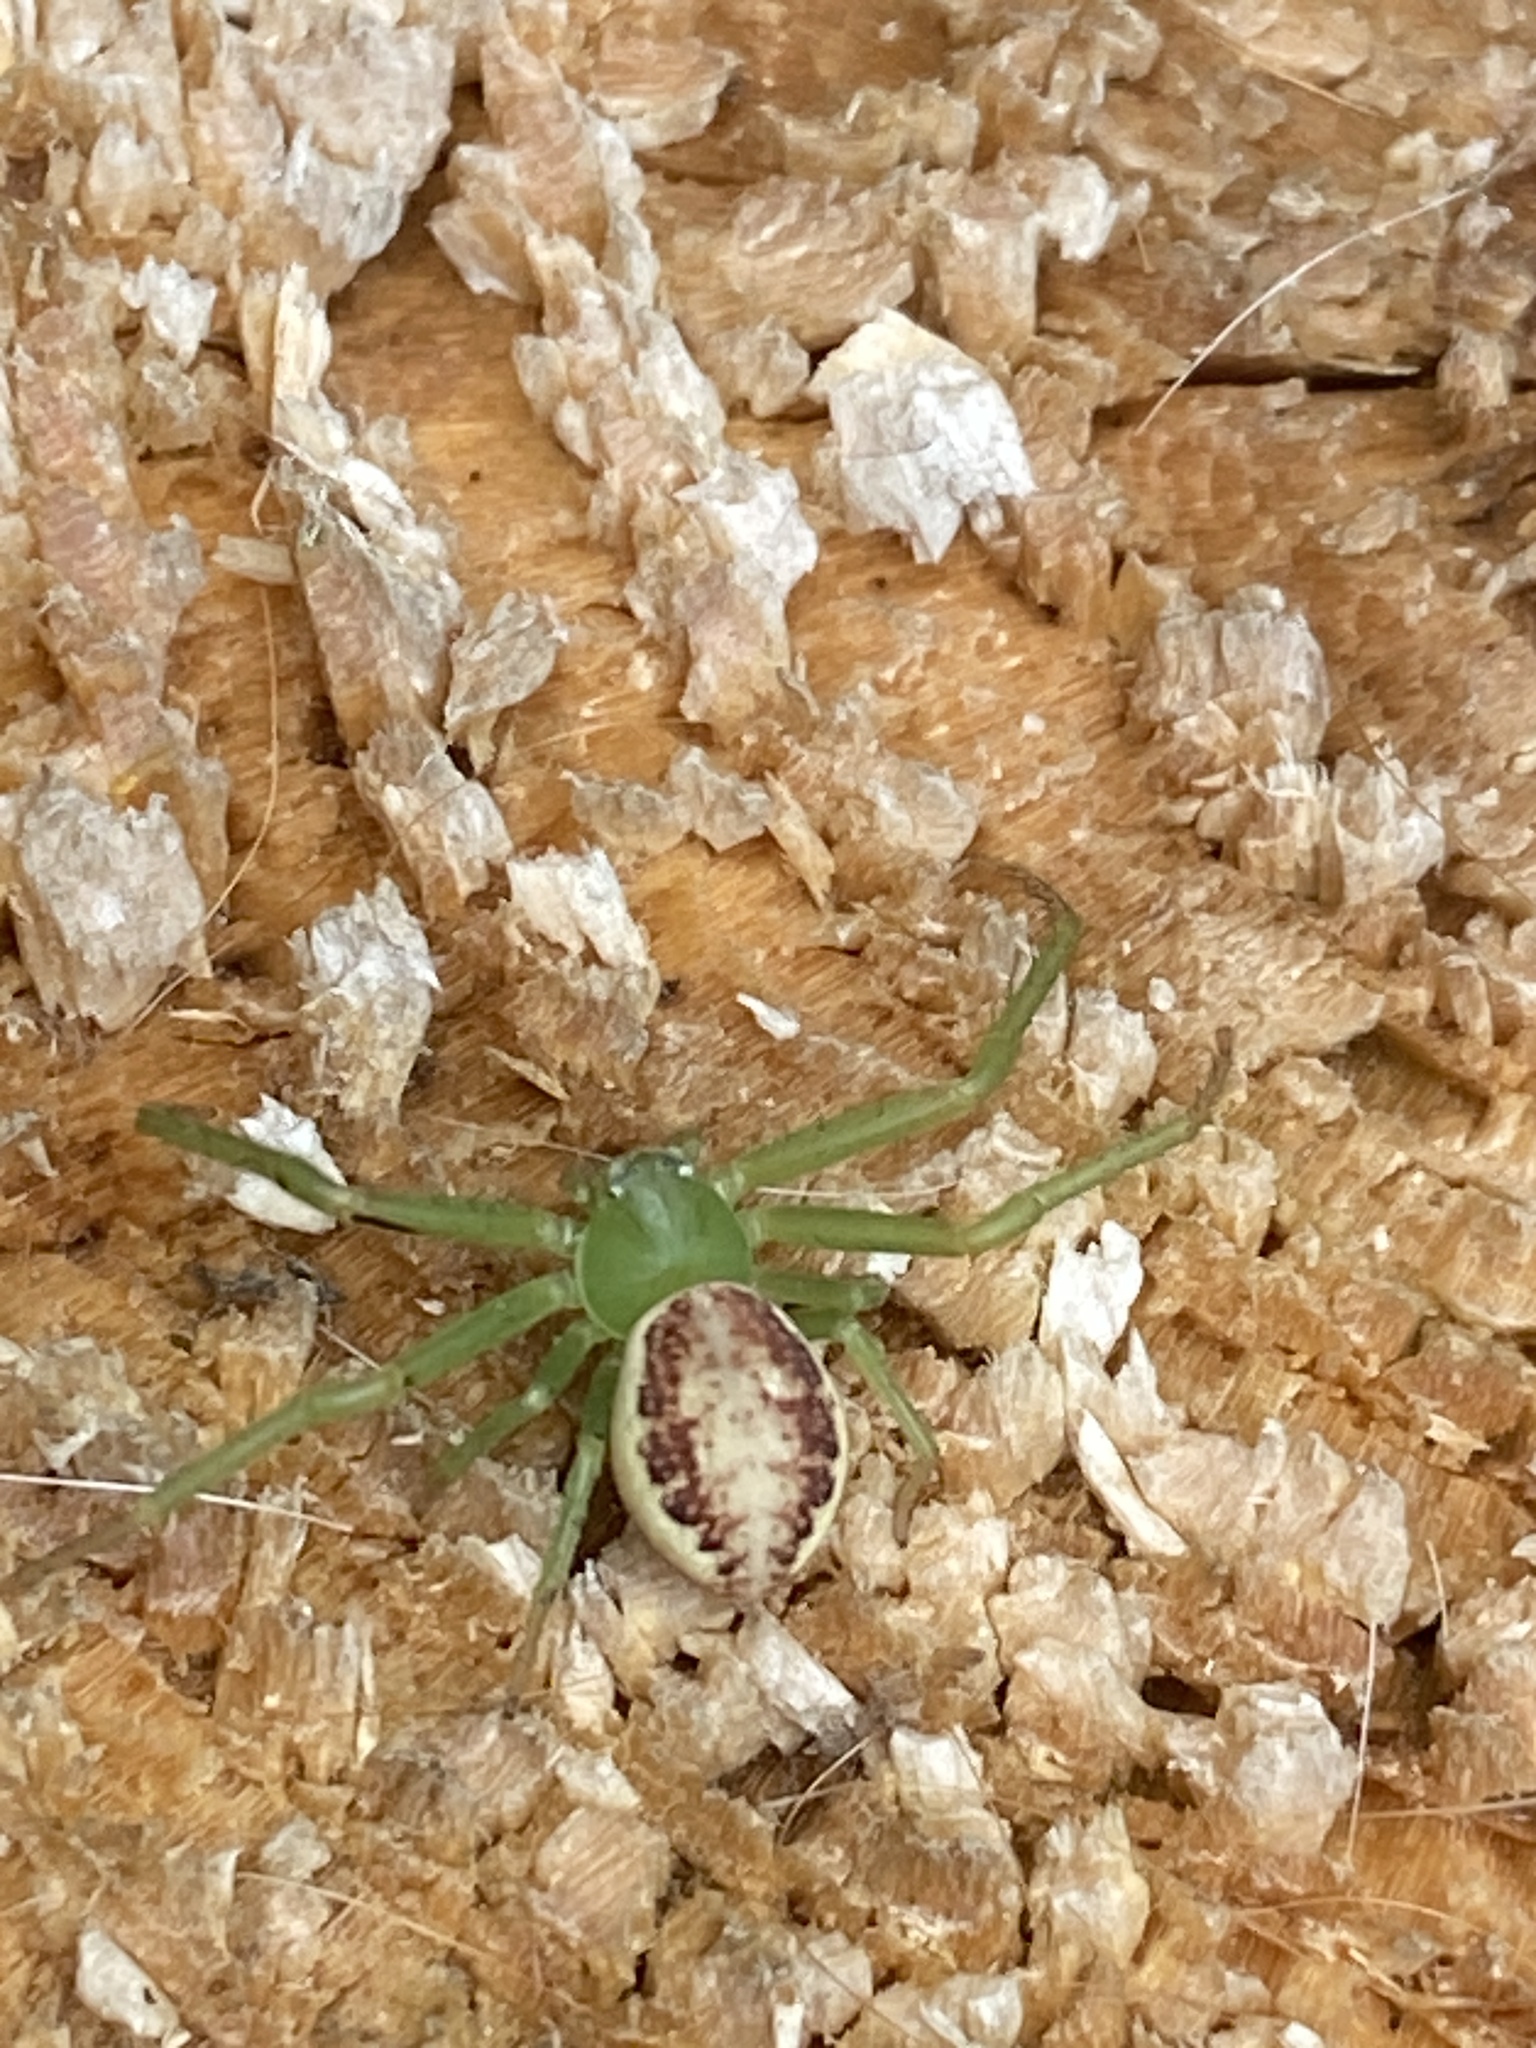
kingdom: Animalia
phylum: Arthropoda
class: Arachnida
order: Araneae
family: Thomisidae
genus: Diaea
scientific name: Diaea dorsata
